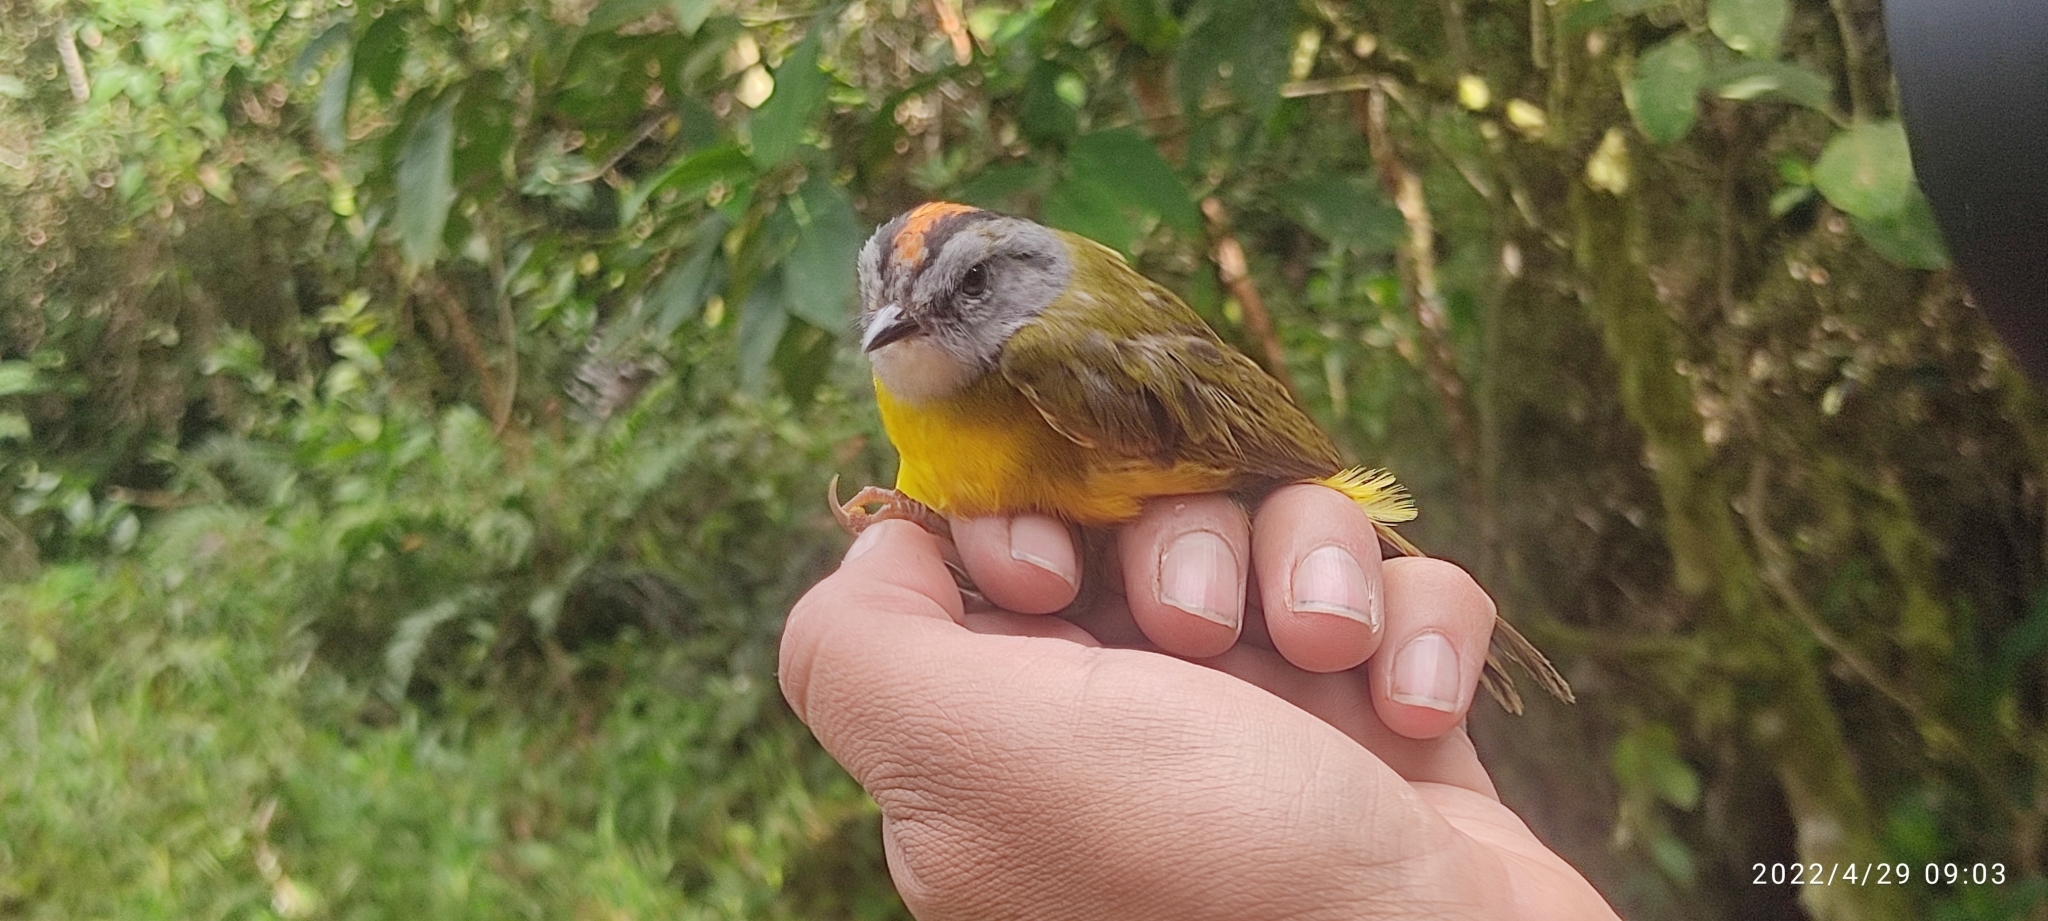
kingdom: Animalia
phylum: Chordata
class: Aves
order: Passeriformes
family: Parulidae
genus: Myiothlypis
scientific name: Myiothlypis coronata
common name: Russet-crowned warbler
